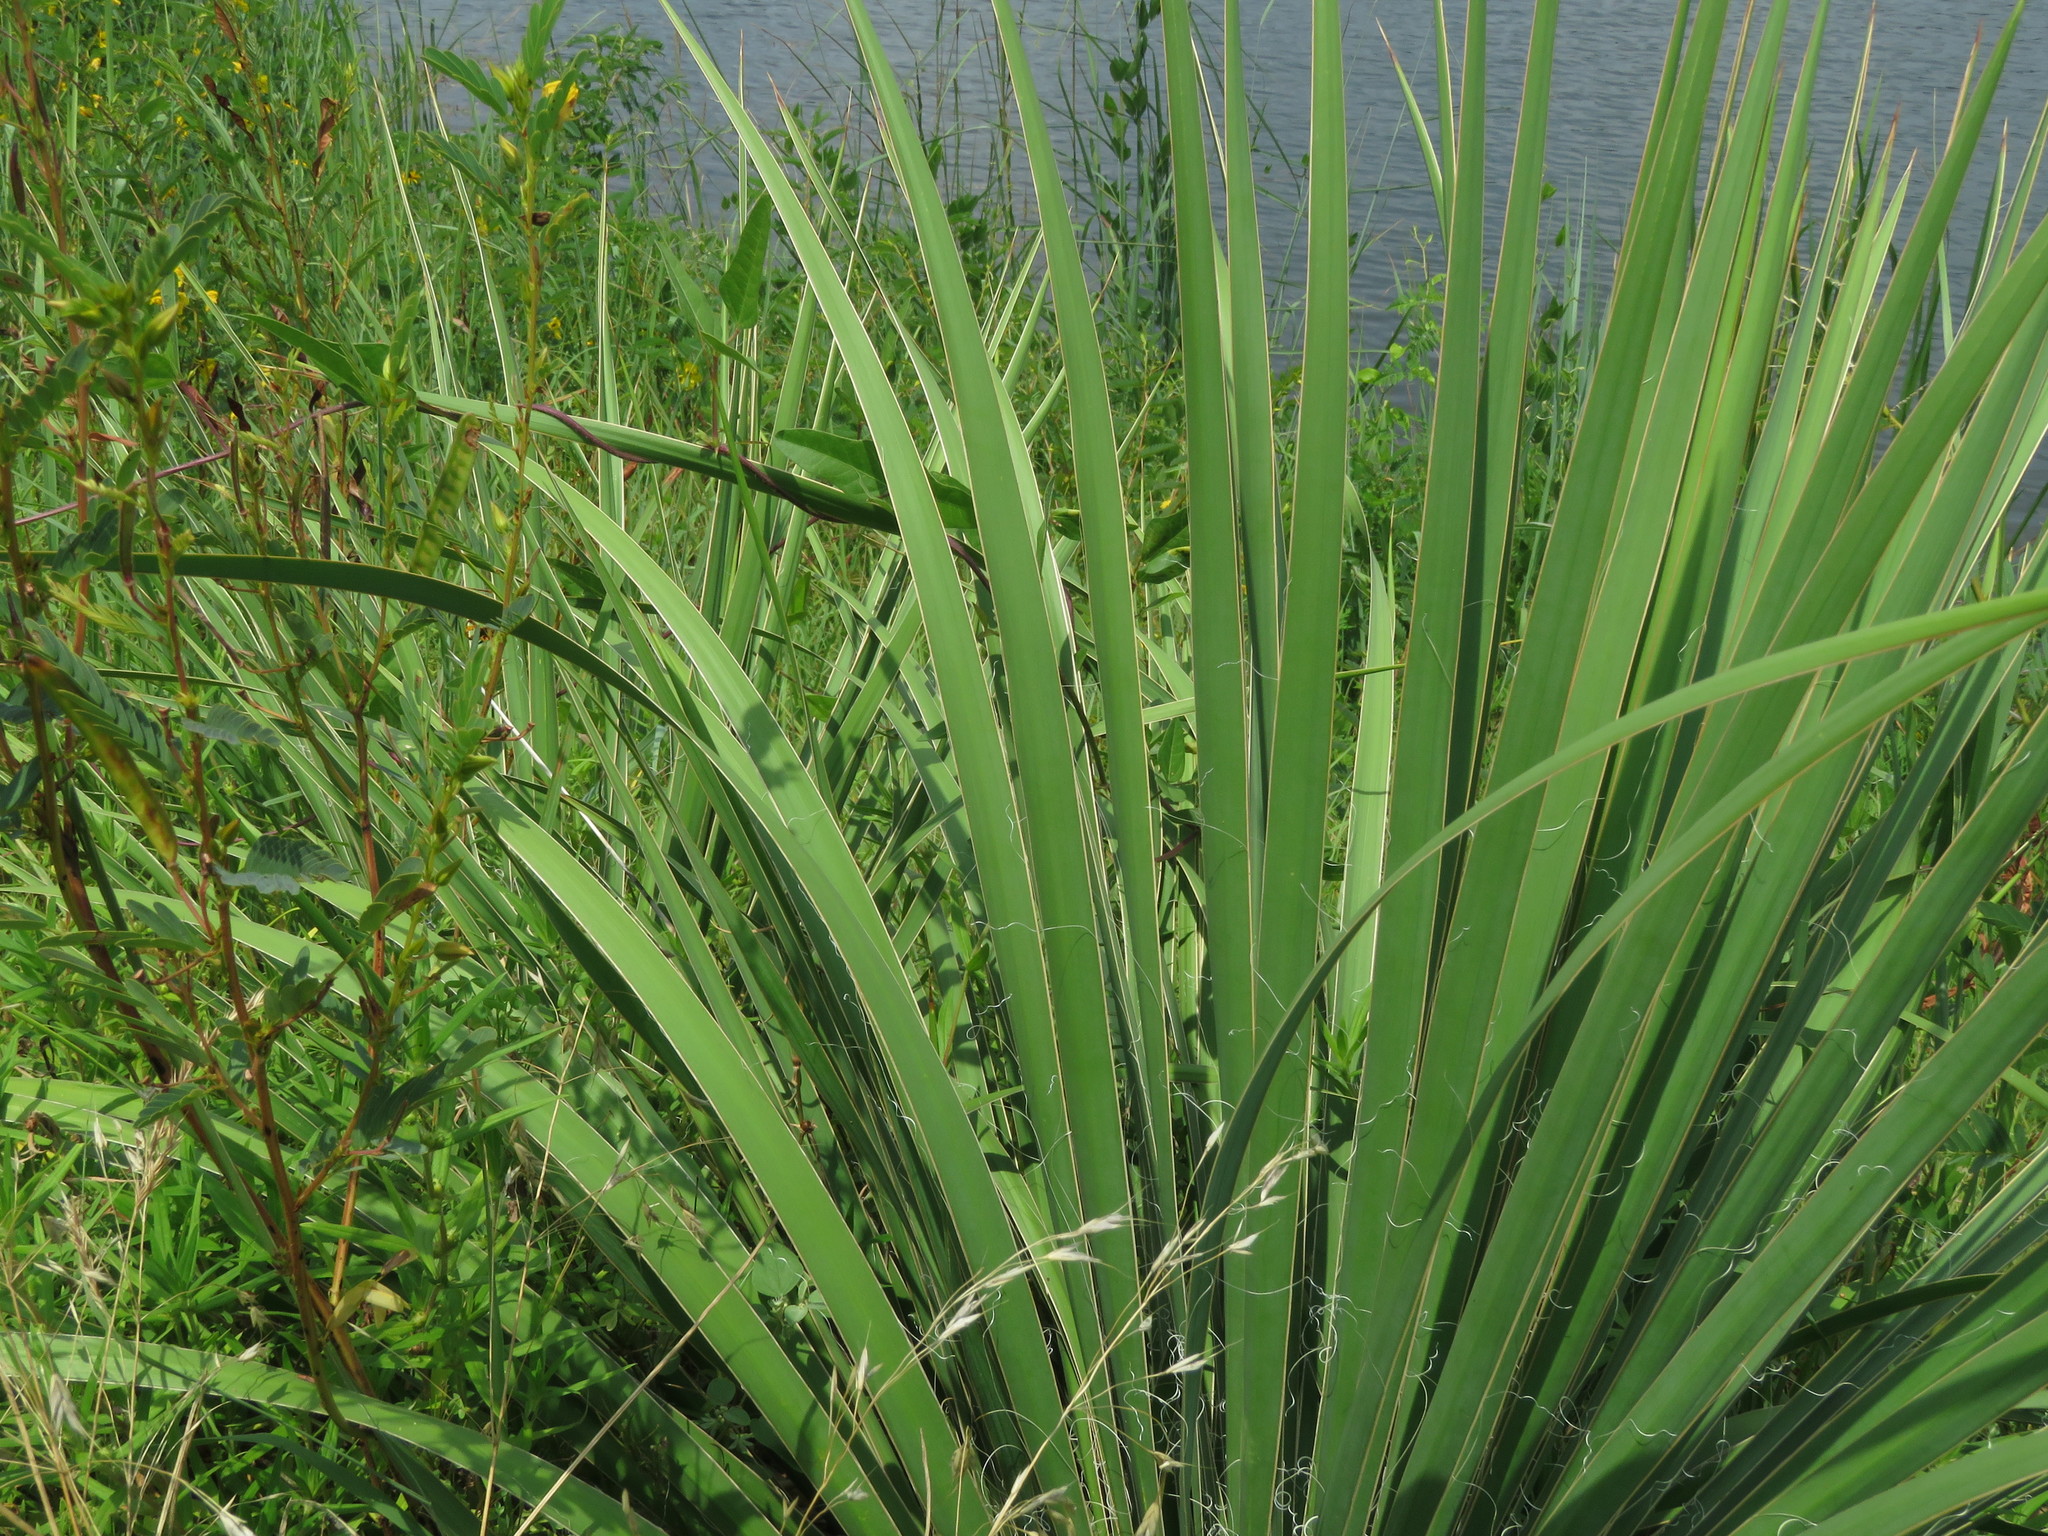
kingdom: Plantae
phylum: Tracheophyta
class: Liliopsida
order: Asparagales
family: Asparagaceae
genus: Yucca
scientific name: Yucca flaccida
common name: Adam's-needle
